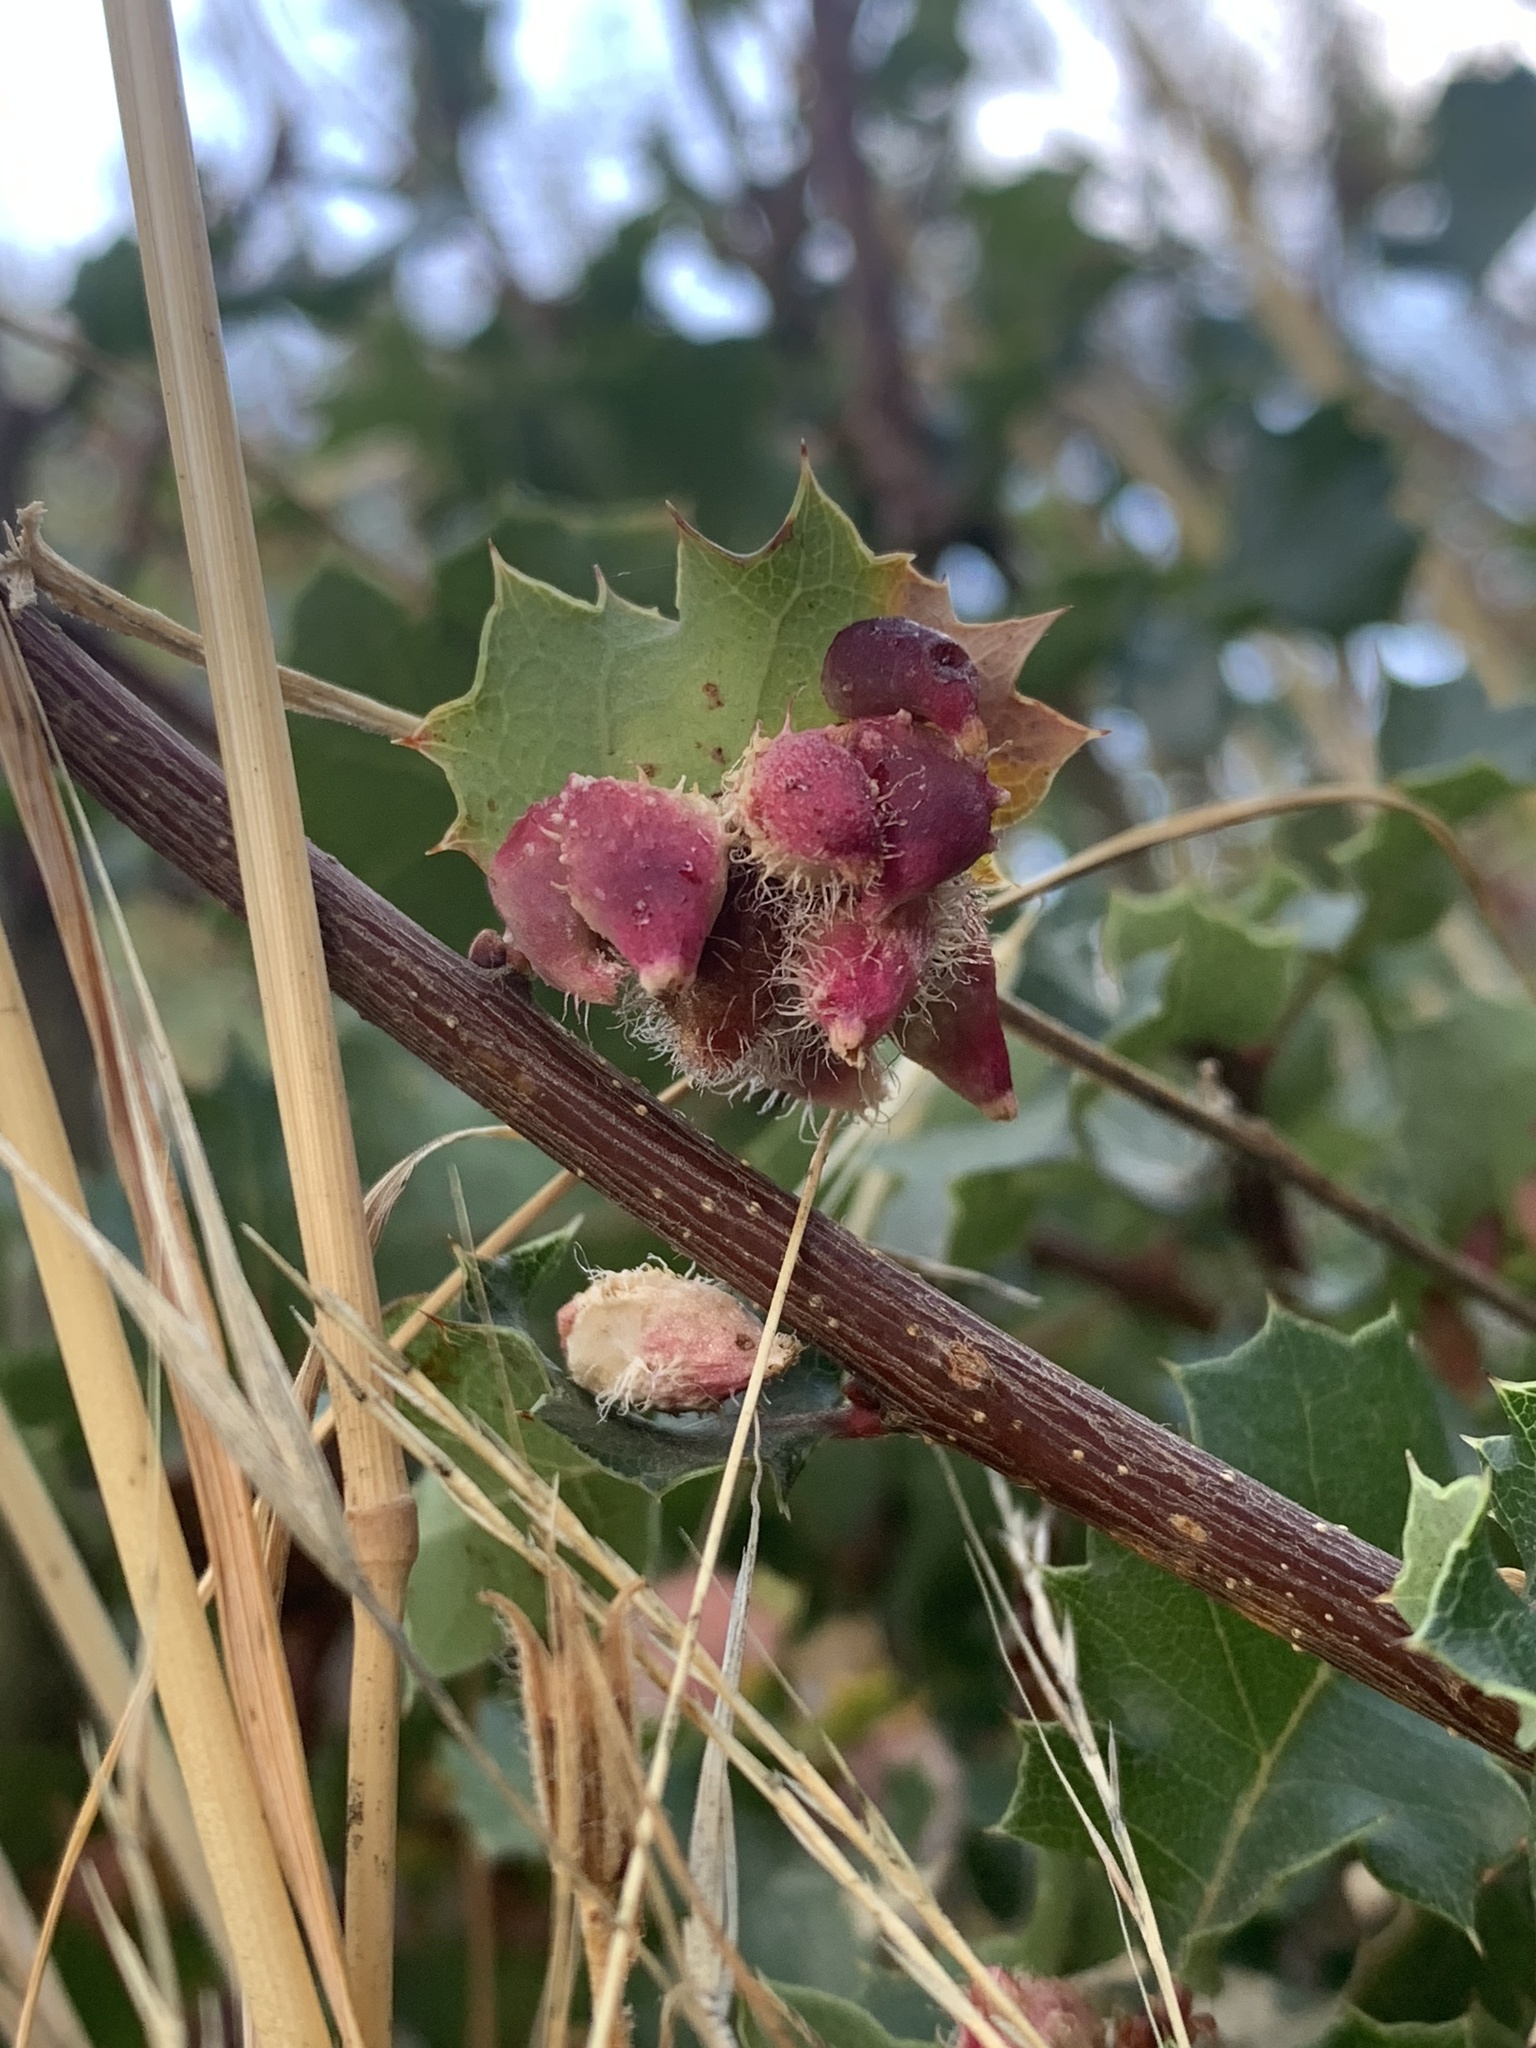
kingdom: Animalia
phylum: Arthropoda
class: Insecta
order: Hymenoptera
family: Cynipidae
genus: Andricus
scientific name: Andricus
